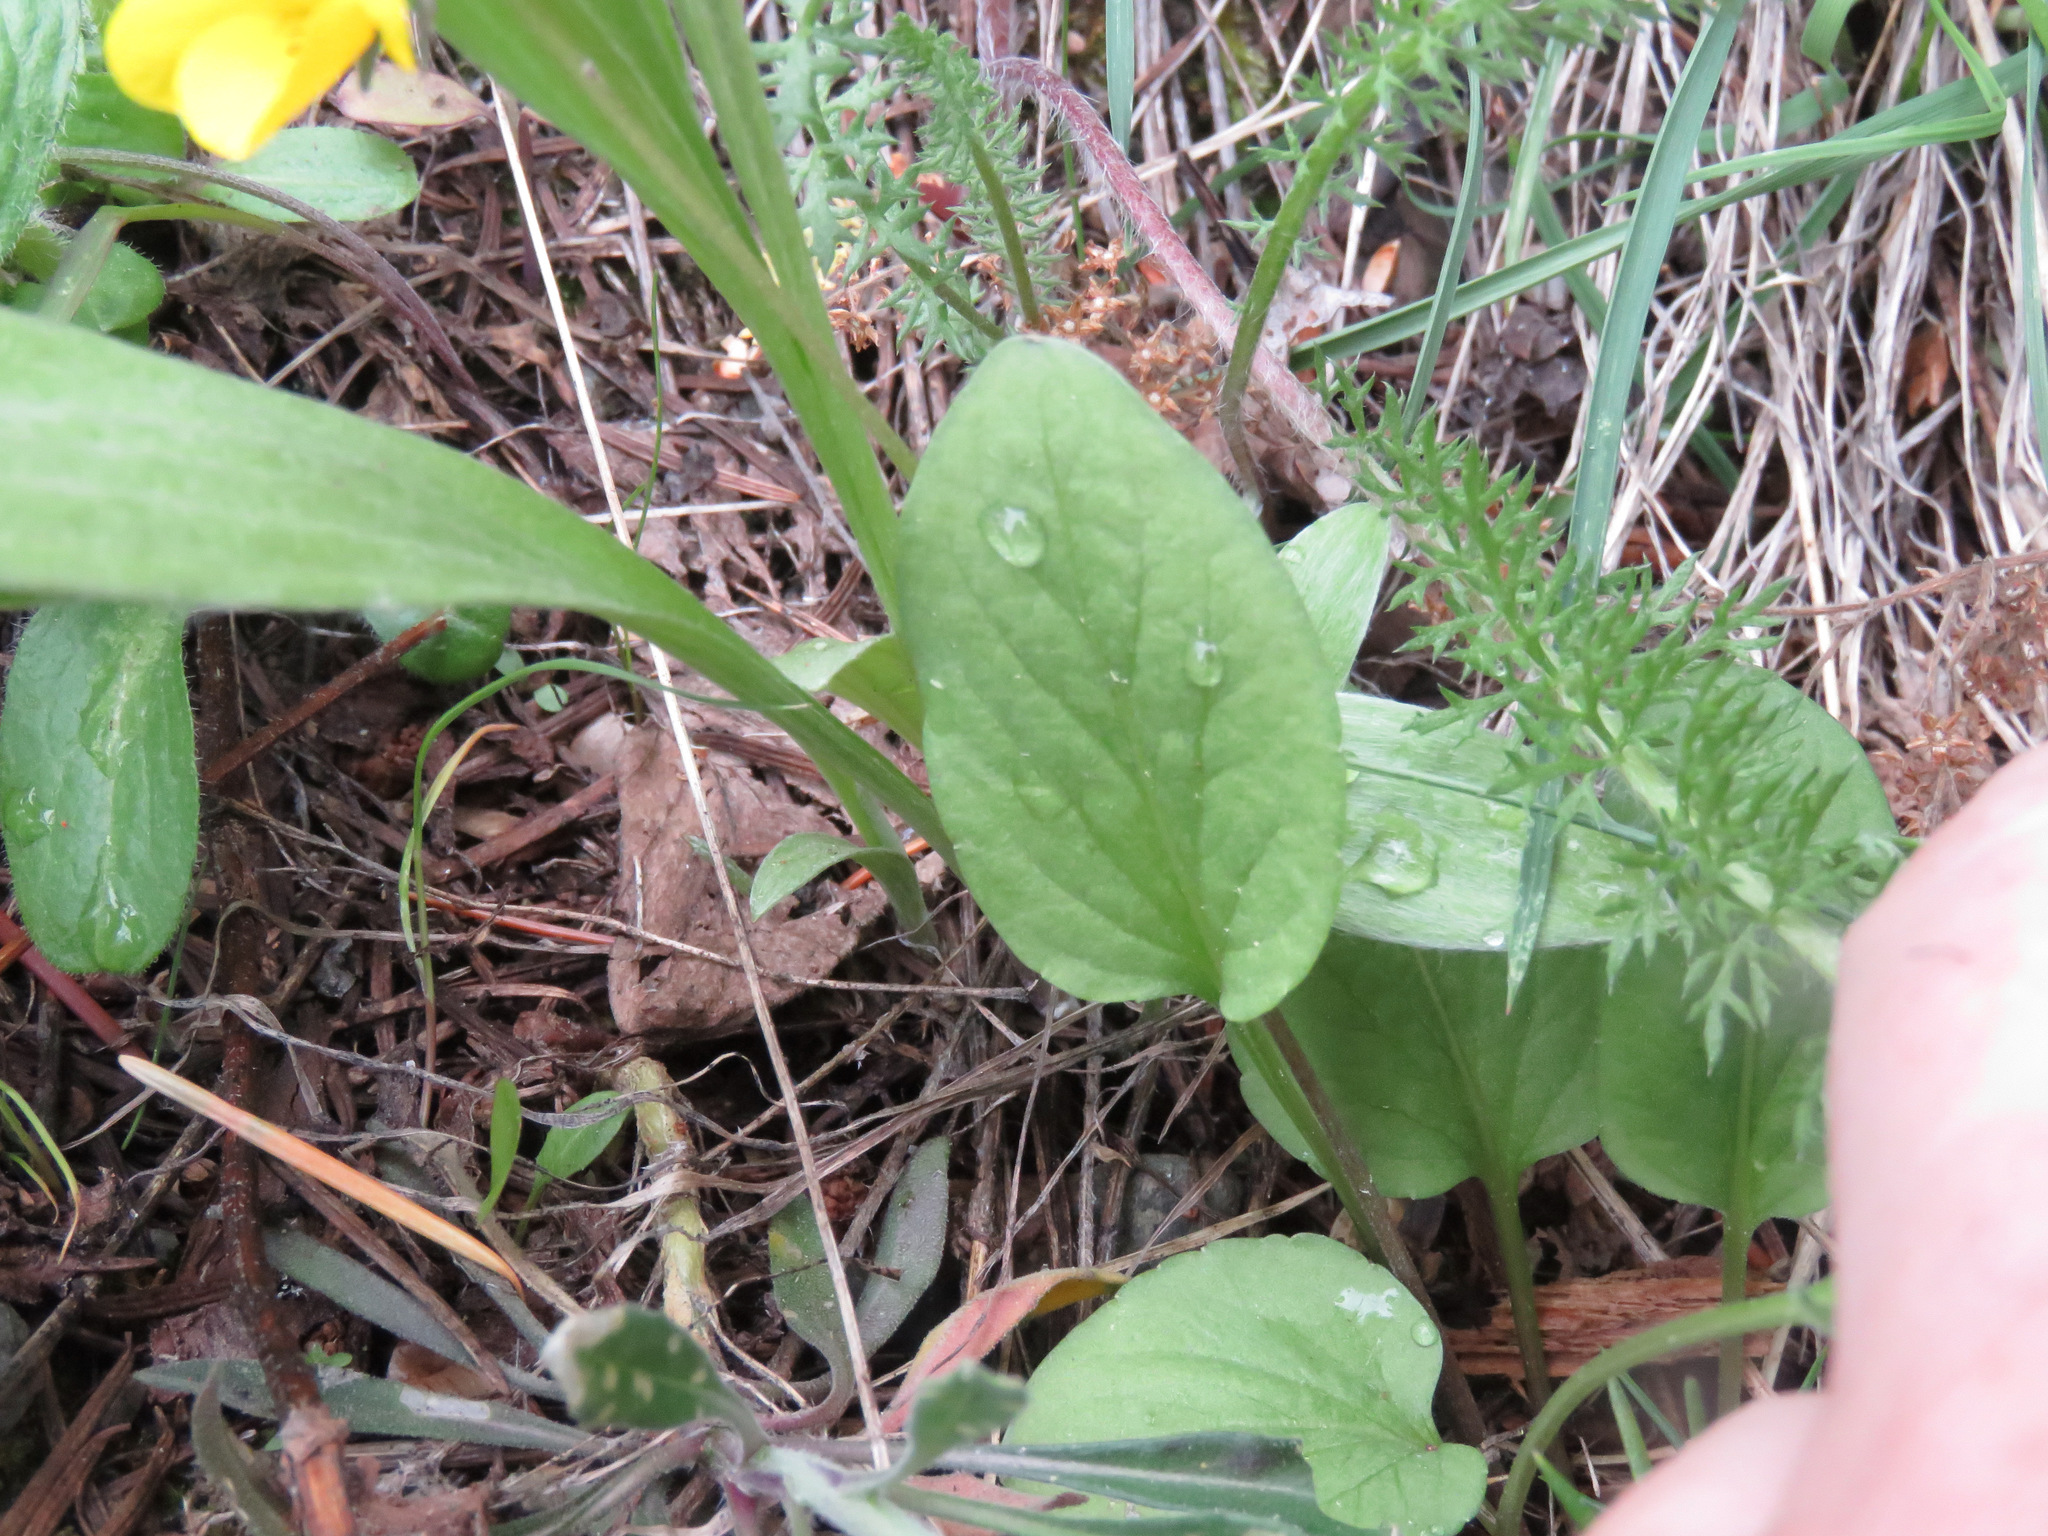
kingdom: Plantae
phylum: Tracheophyta
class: Magnoliopsida
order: Malpighiales
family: Violaceae
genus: Viola
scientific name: Viola vallicola
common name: Valley violet
